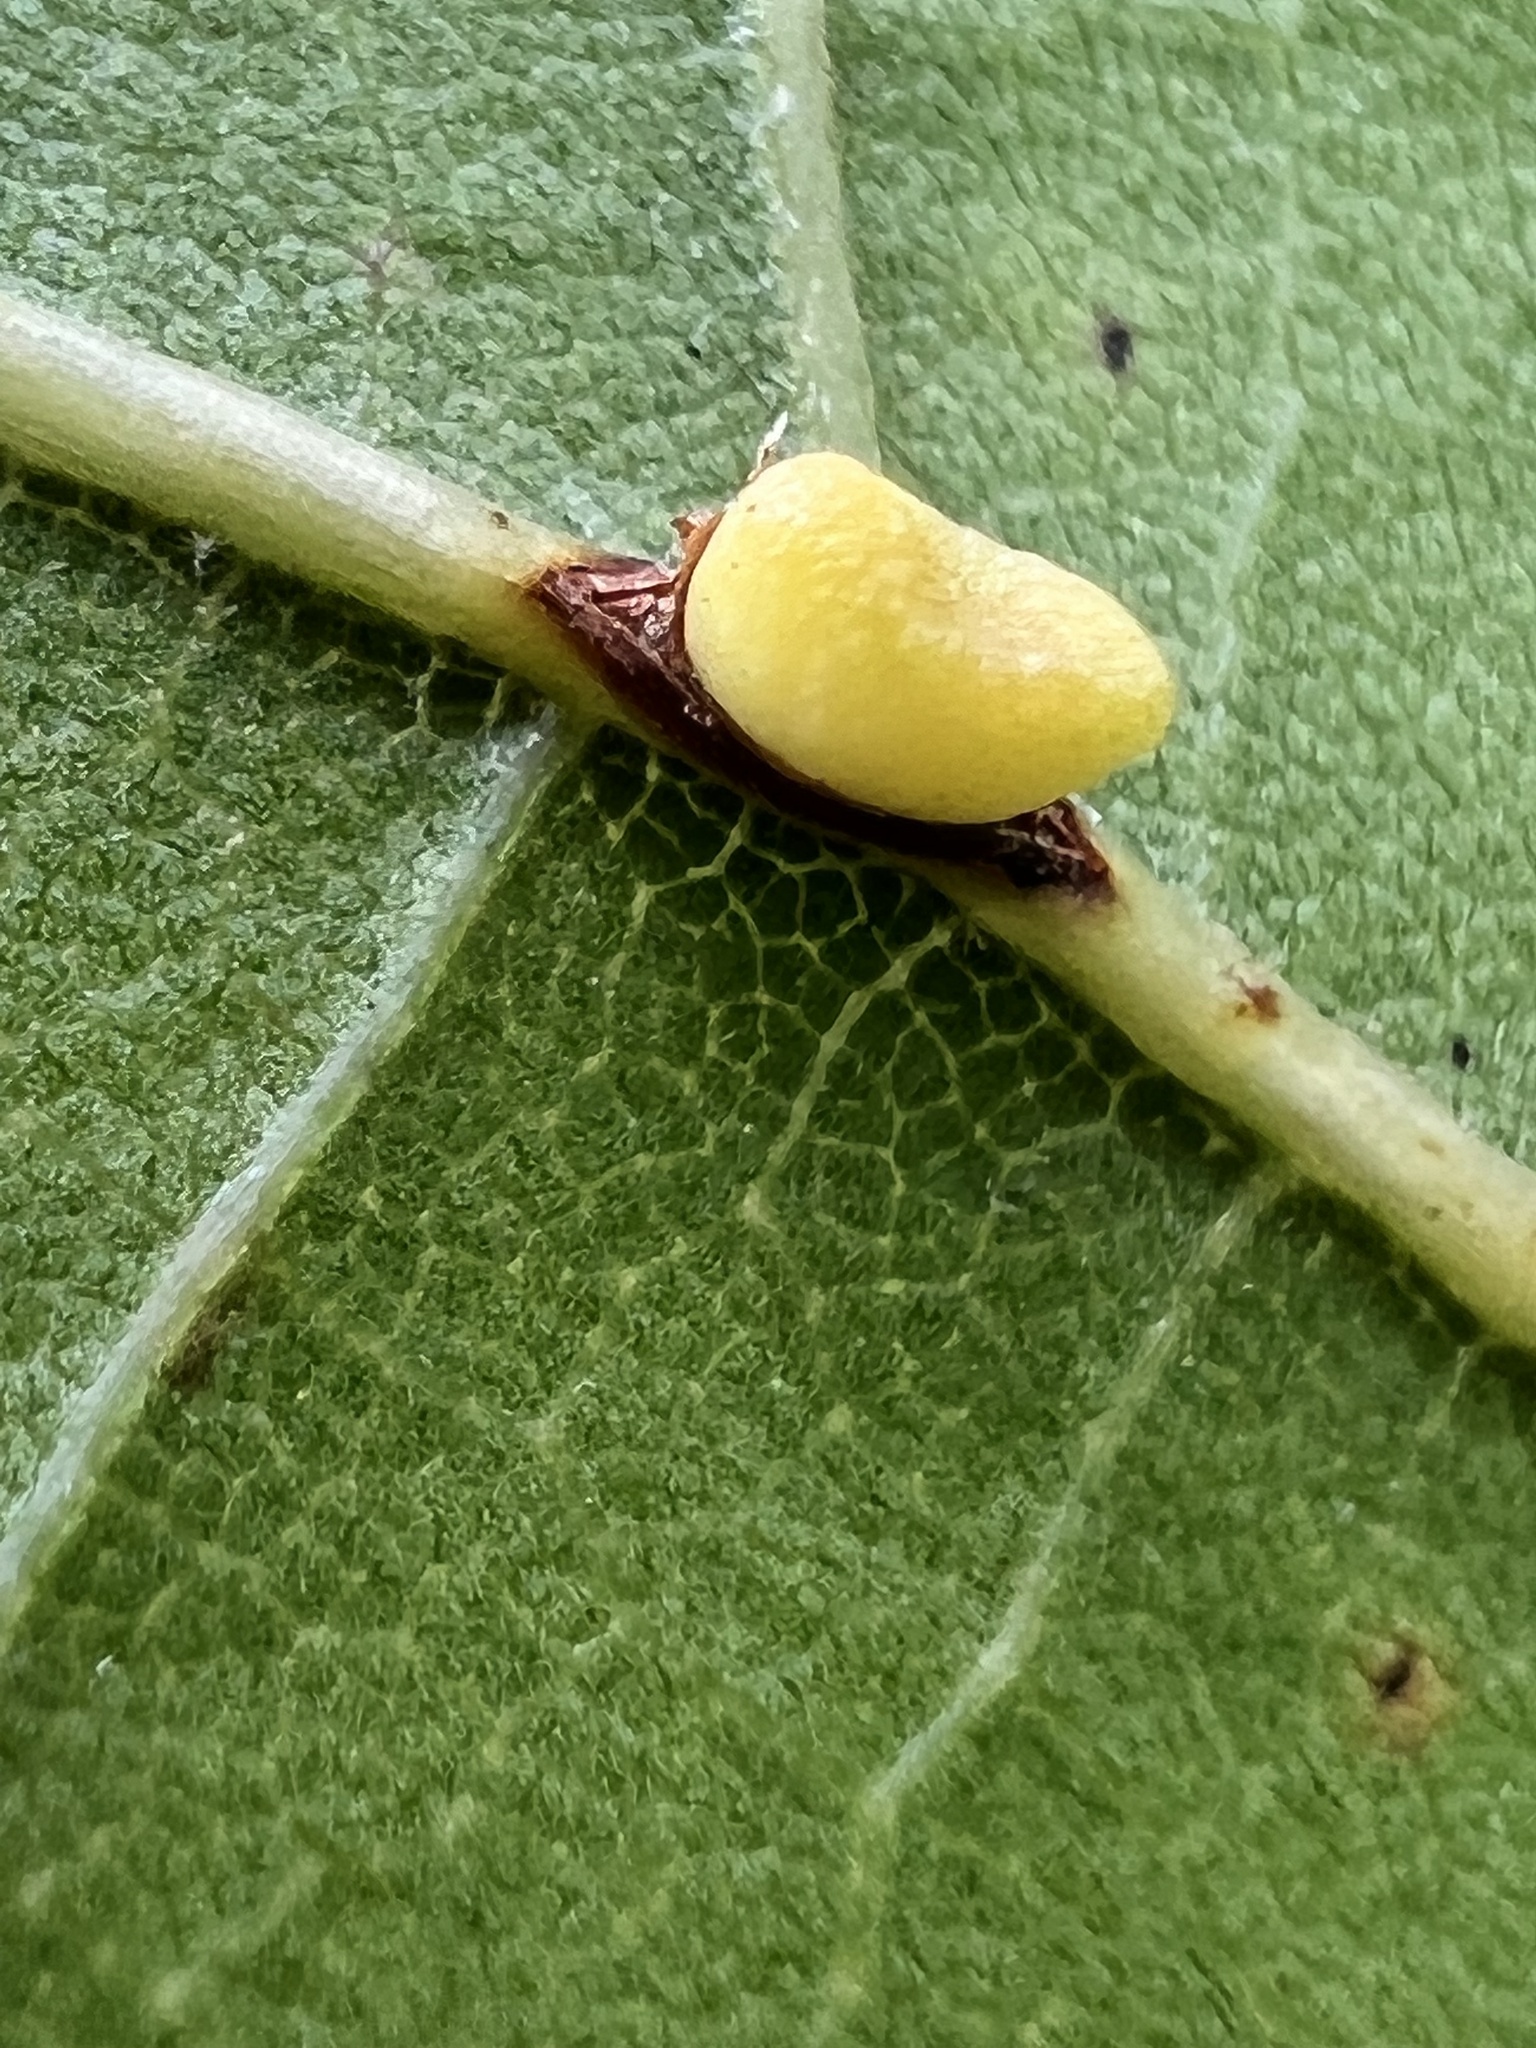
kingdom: Animalia
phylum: Arthropoda
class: Insecta
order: Hymenoptera
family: Cynipidae
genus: Kokkocynips
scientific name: Kokkocynips rileyi
